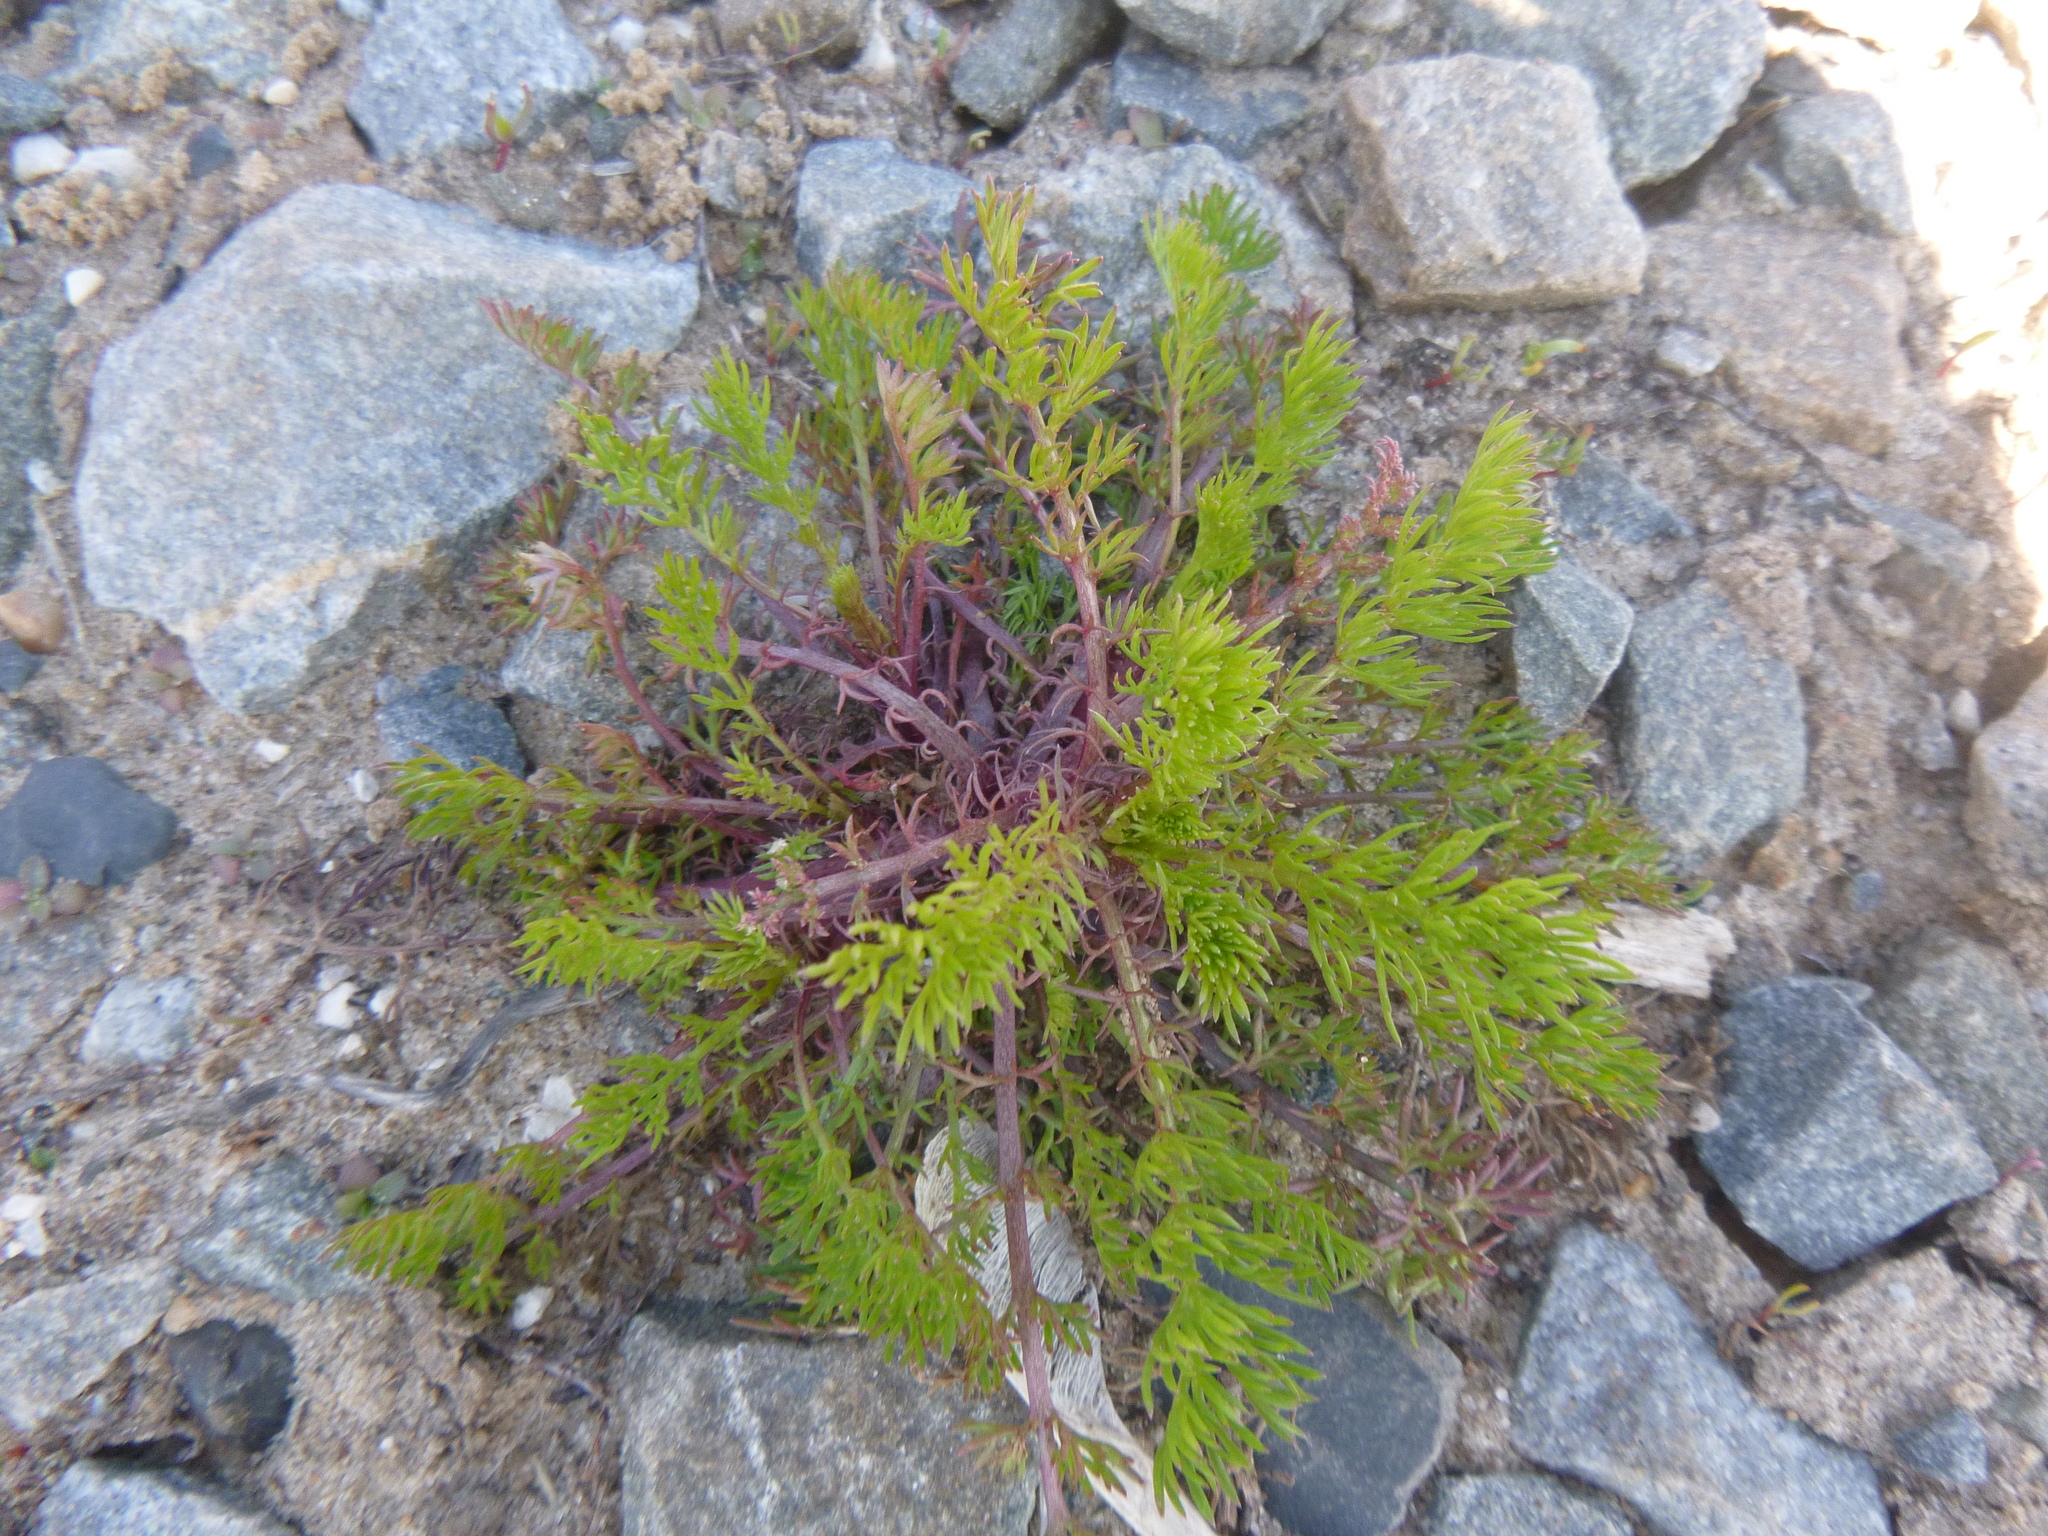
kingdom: Plantae
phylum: Tracheophyta
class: Magnoliopsida
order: Asterales
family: Asteraceae
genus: Tripleurospermum
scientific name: Tripleurospermum inodorum
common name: Scentless mayweed
